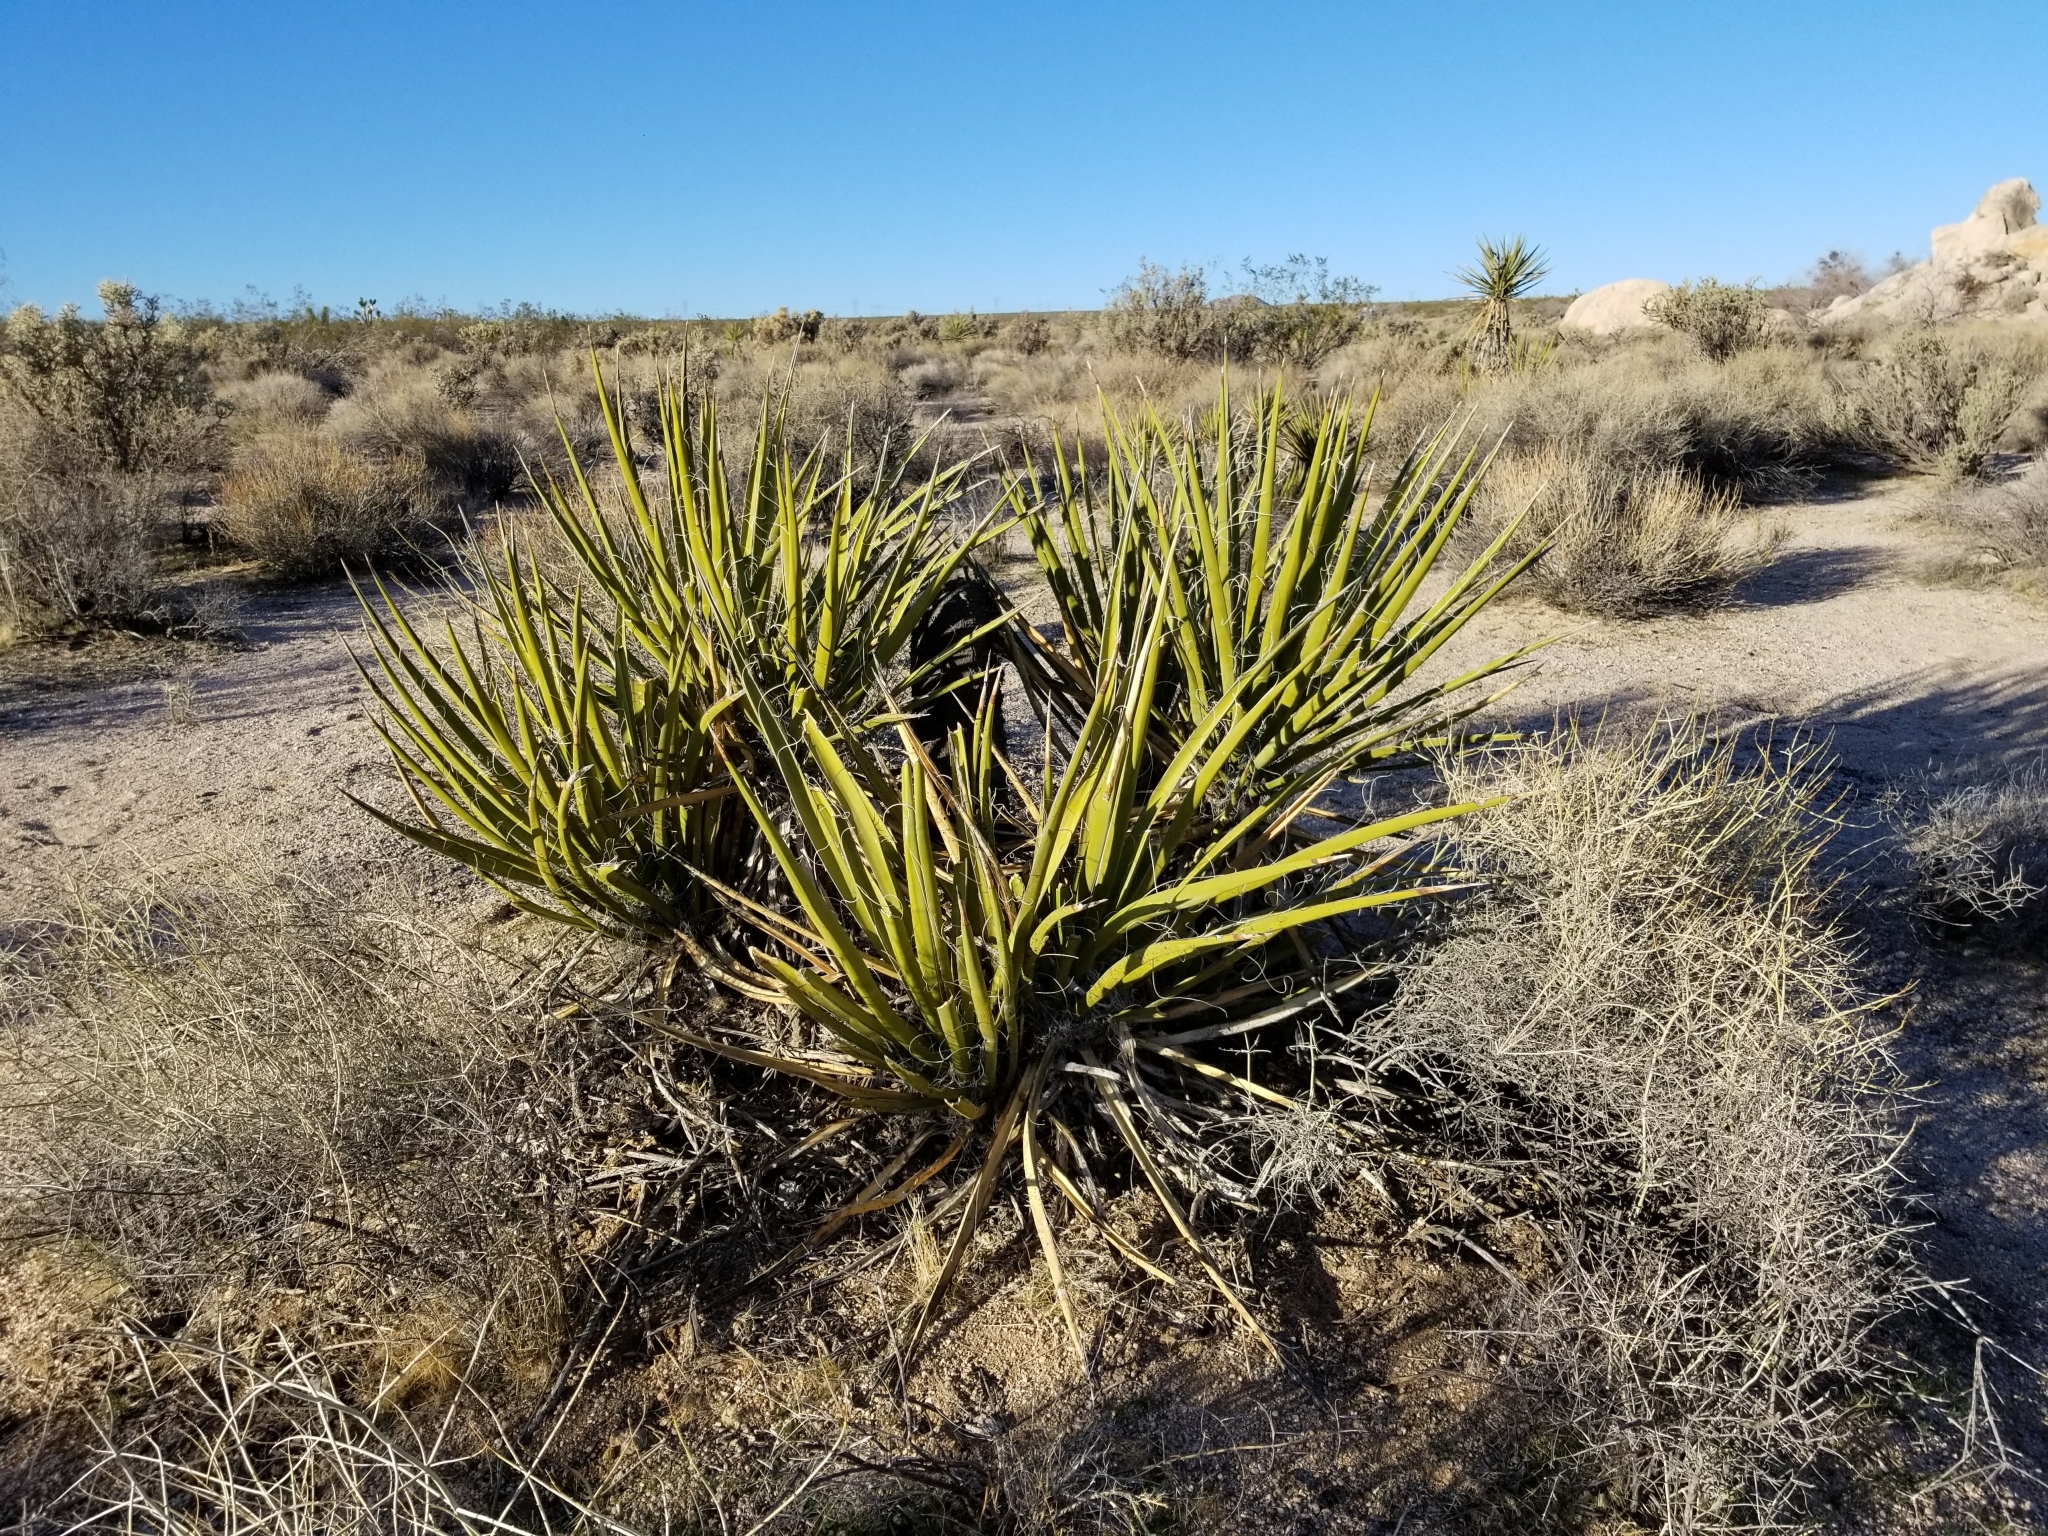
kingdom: Plantae
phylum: Tracheophyta
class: Liliopsida
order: Asparagales
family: Asparagaceae
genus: Yucca
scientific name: Yucca schidigera
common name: Mojave yucca
